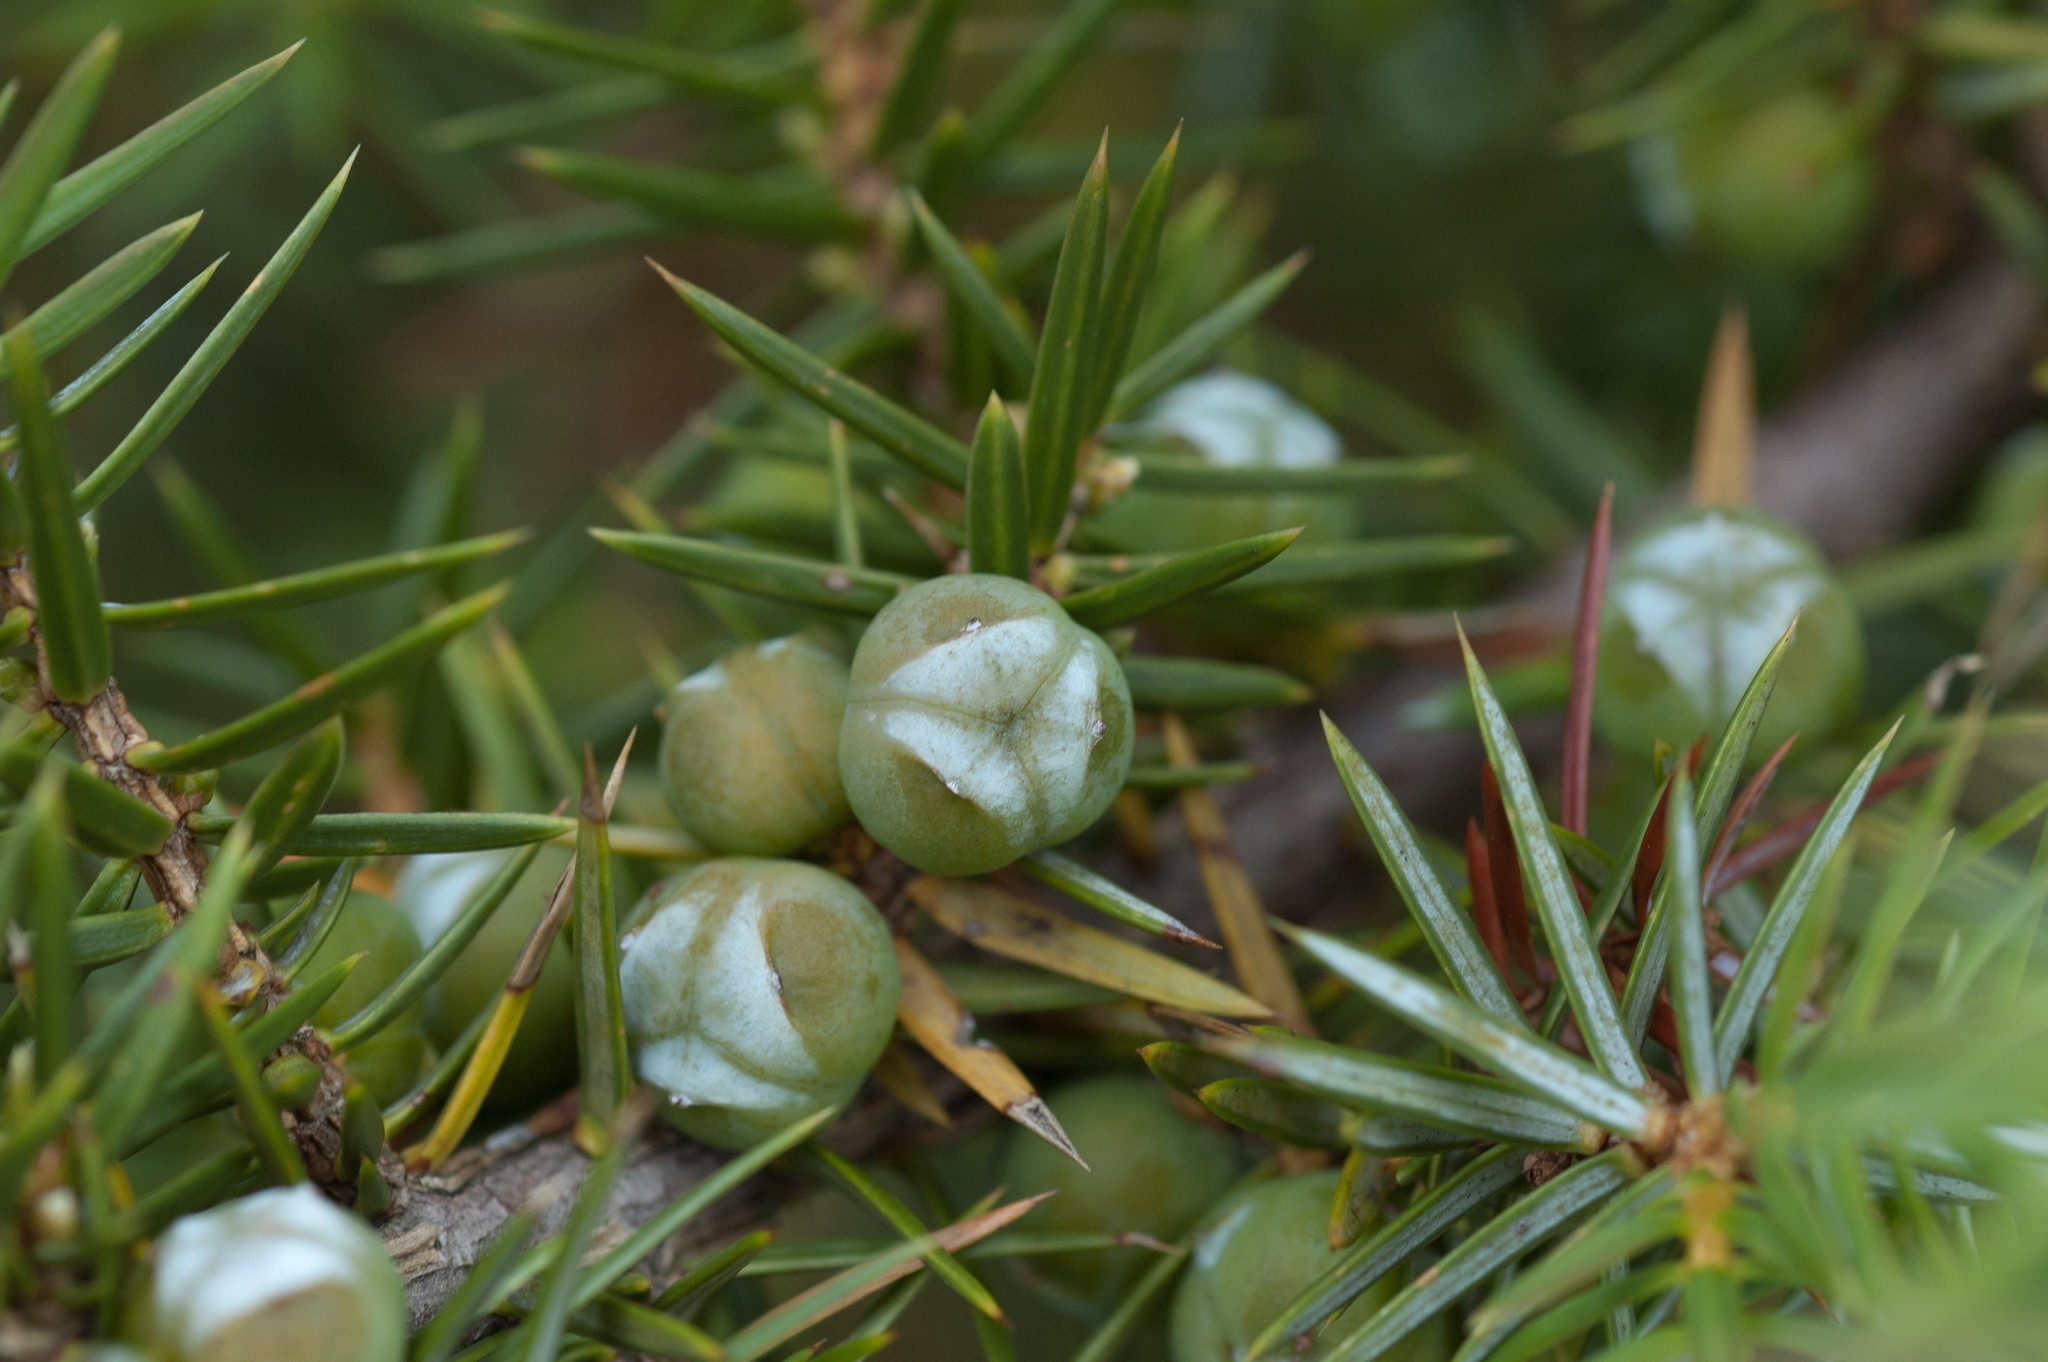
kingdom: Plantae
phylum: Tracheophyta
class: Pinopsida
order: Pinales
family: Cupressaceae
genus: Juniperus
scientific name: Juniperus formosana
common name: Formosan juniper
